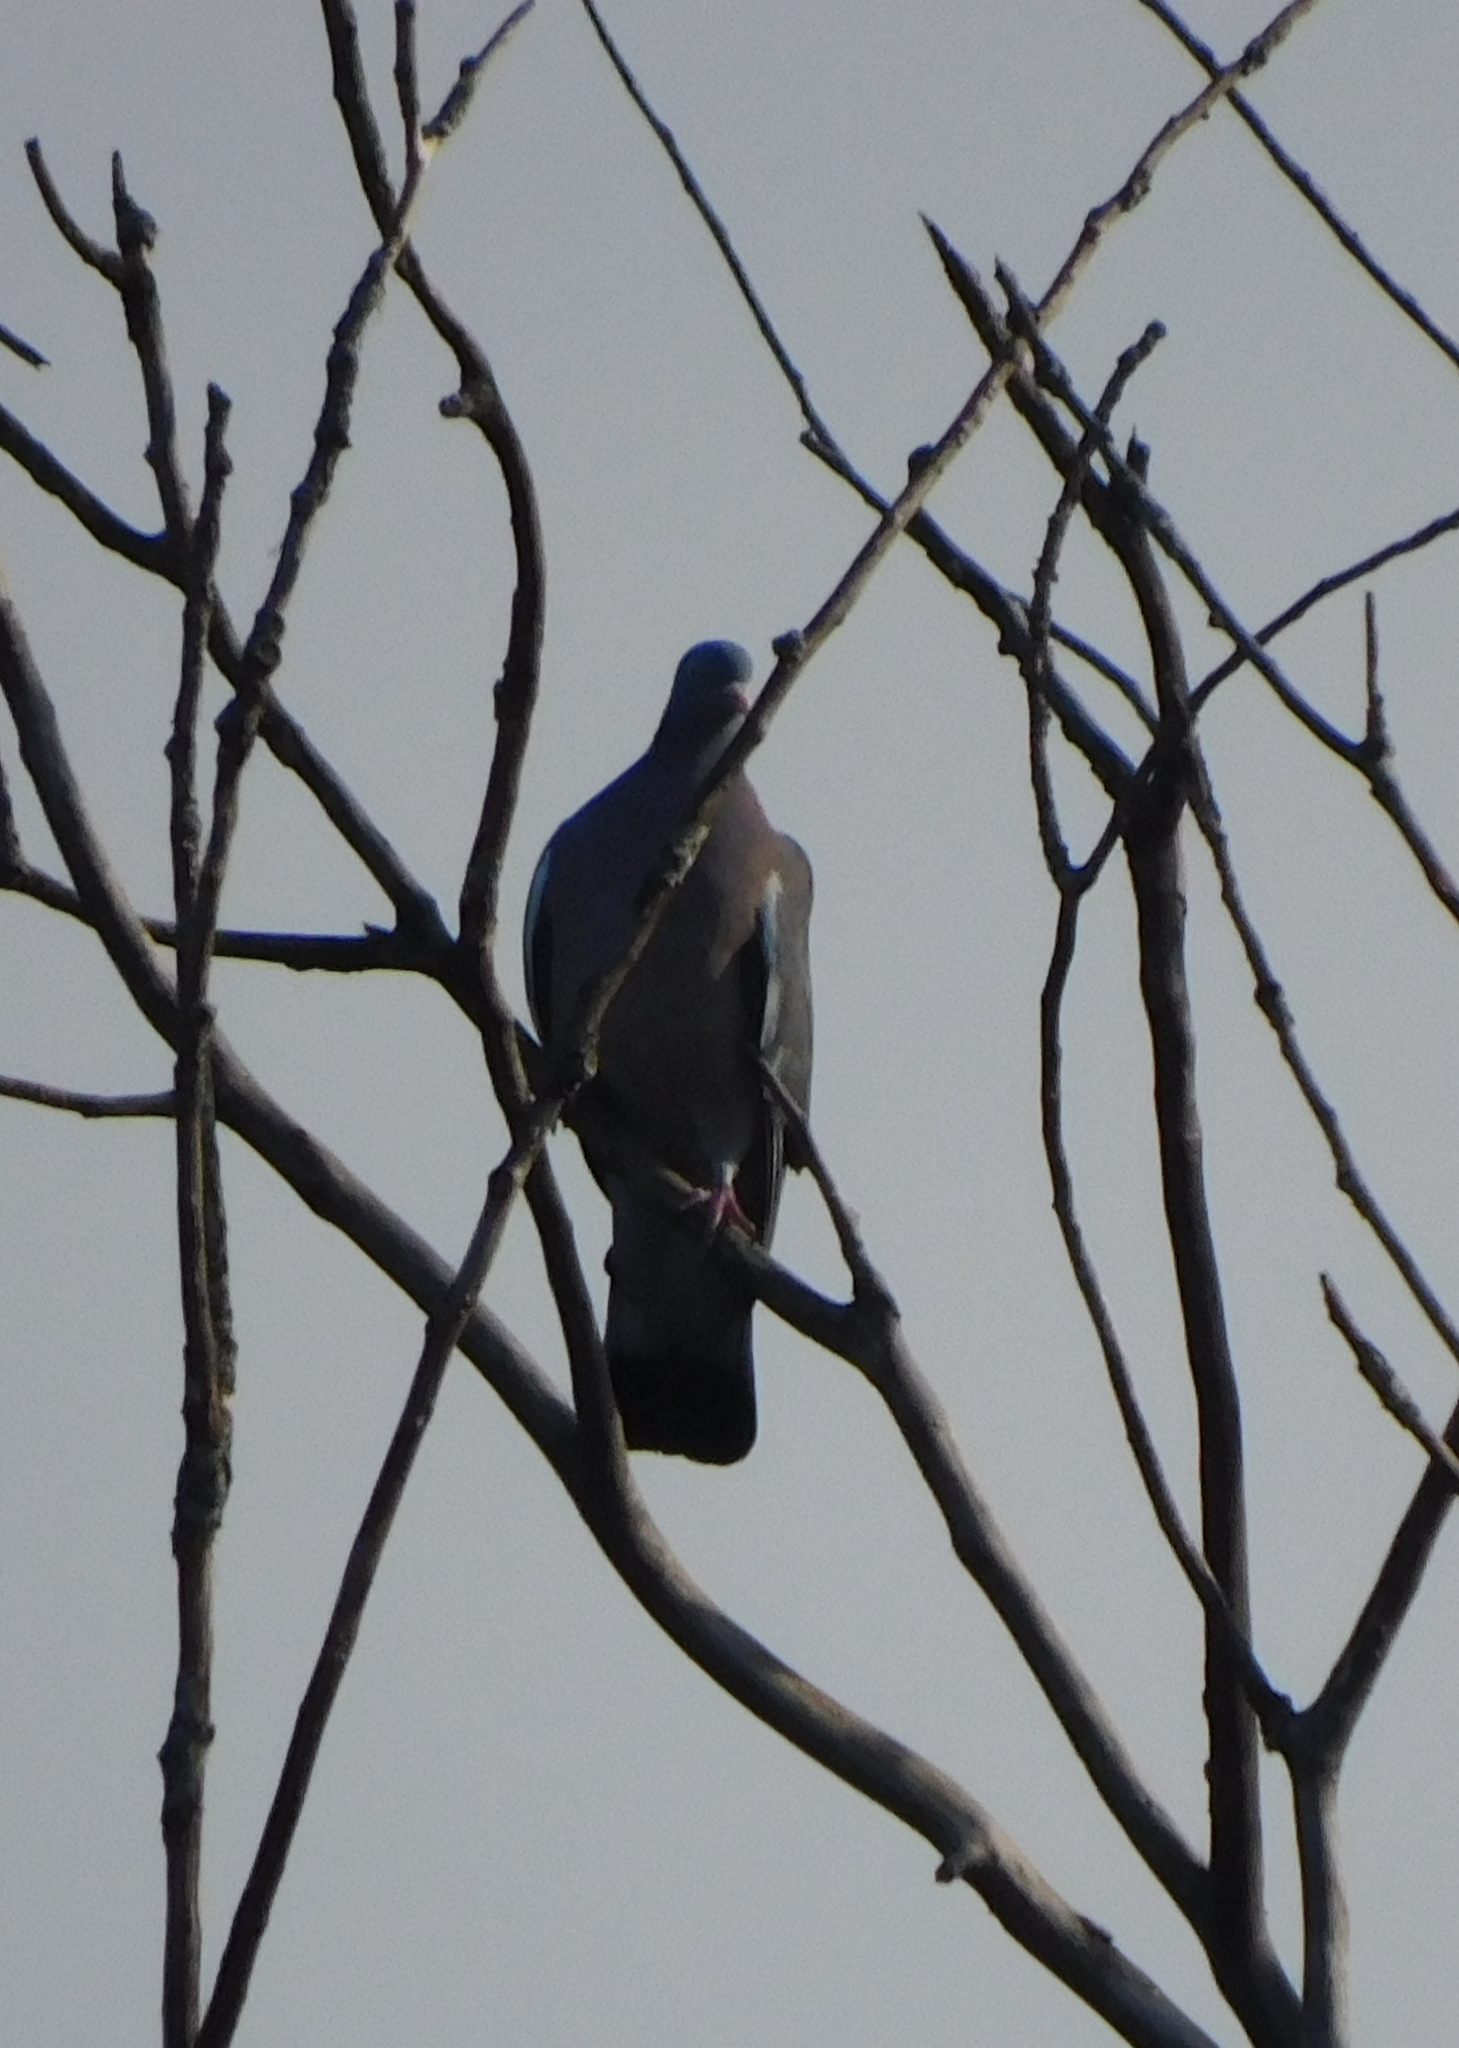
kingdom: Animalia
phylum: Chordata
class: Aves
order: Columbiformes
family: Columbidae
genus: Columba
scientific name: Columba palumbus
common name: Common wood pigeon
